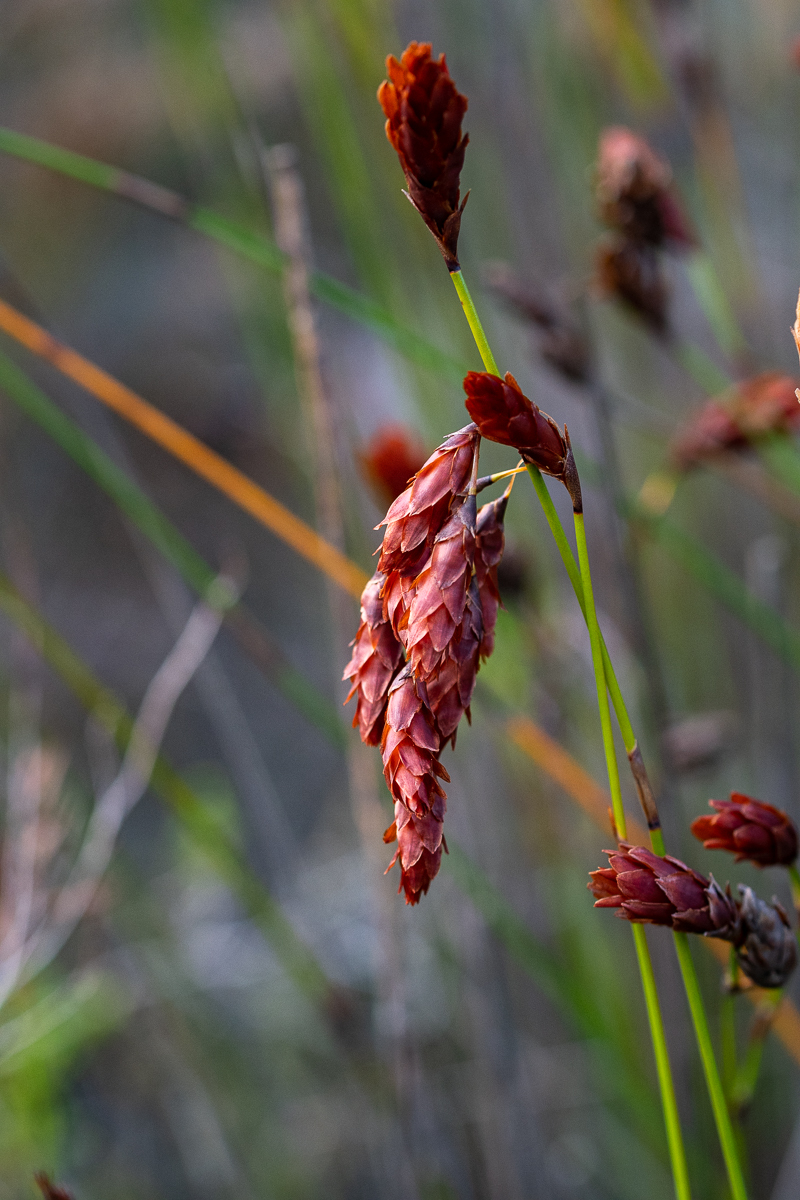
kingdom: Plantae
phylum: Tracheophyta
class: Liliopsida
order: Poales
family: Restionaceae
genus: Restio
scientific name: Restio bifarius
